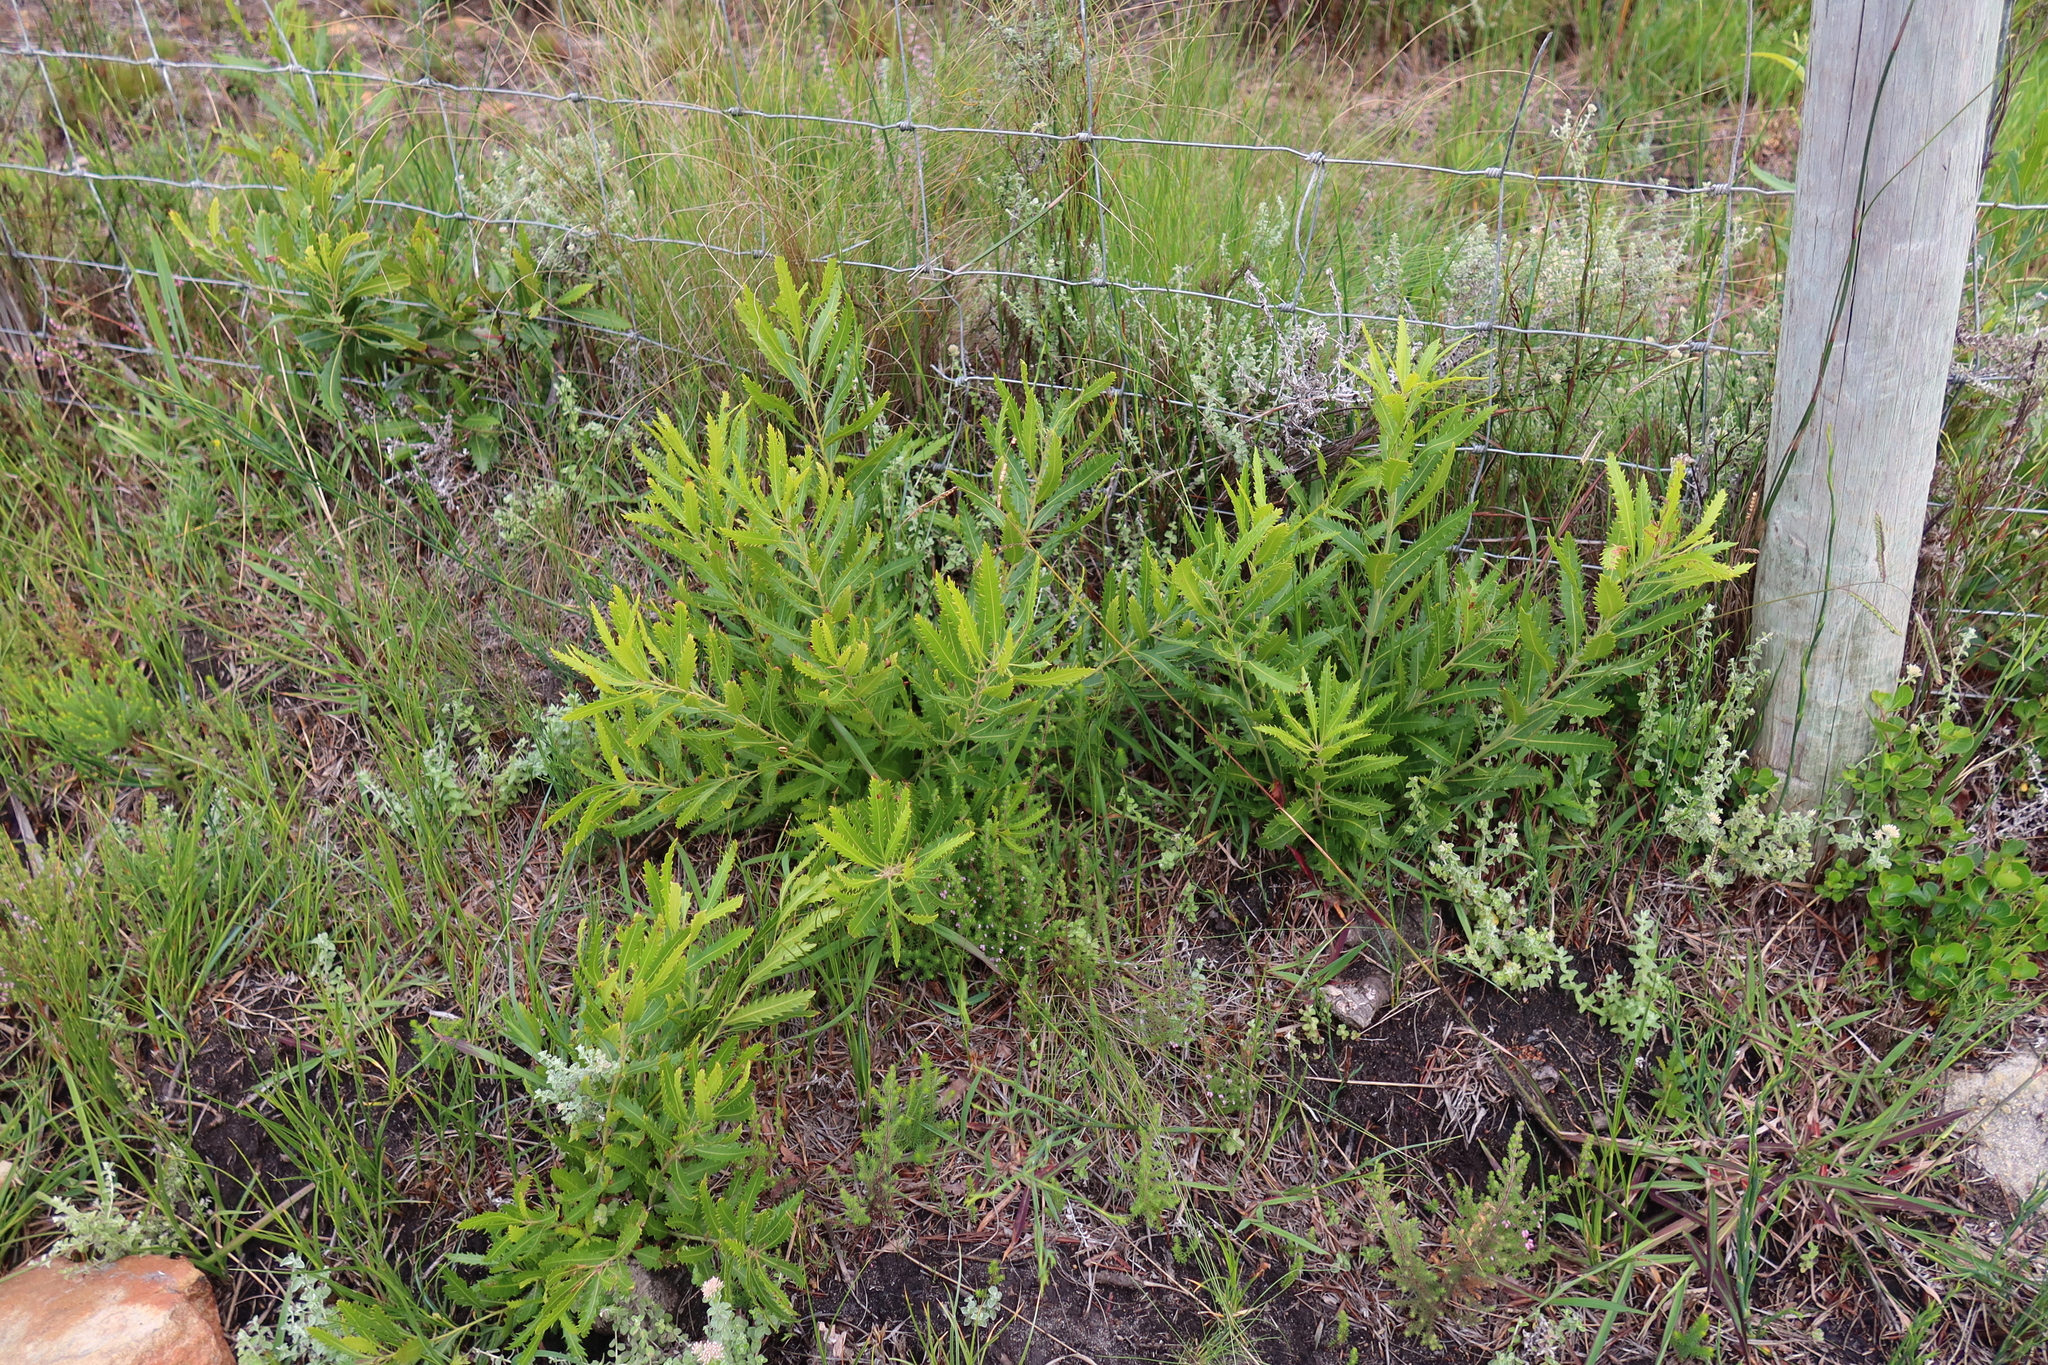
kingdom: Plantae
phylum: Tracheophyta
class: Magnoliopsida
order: Fagales
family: Myricaceae
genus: Morella
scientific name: Morella serrata
